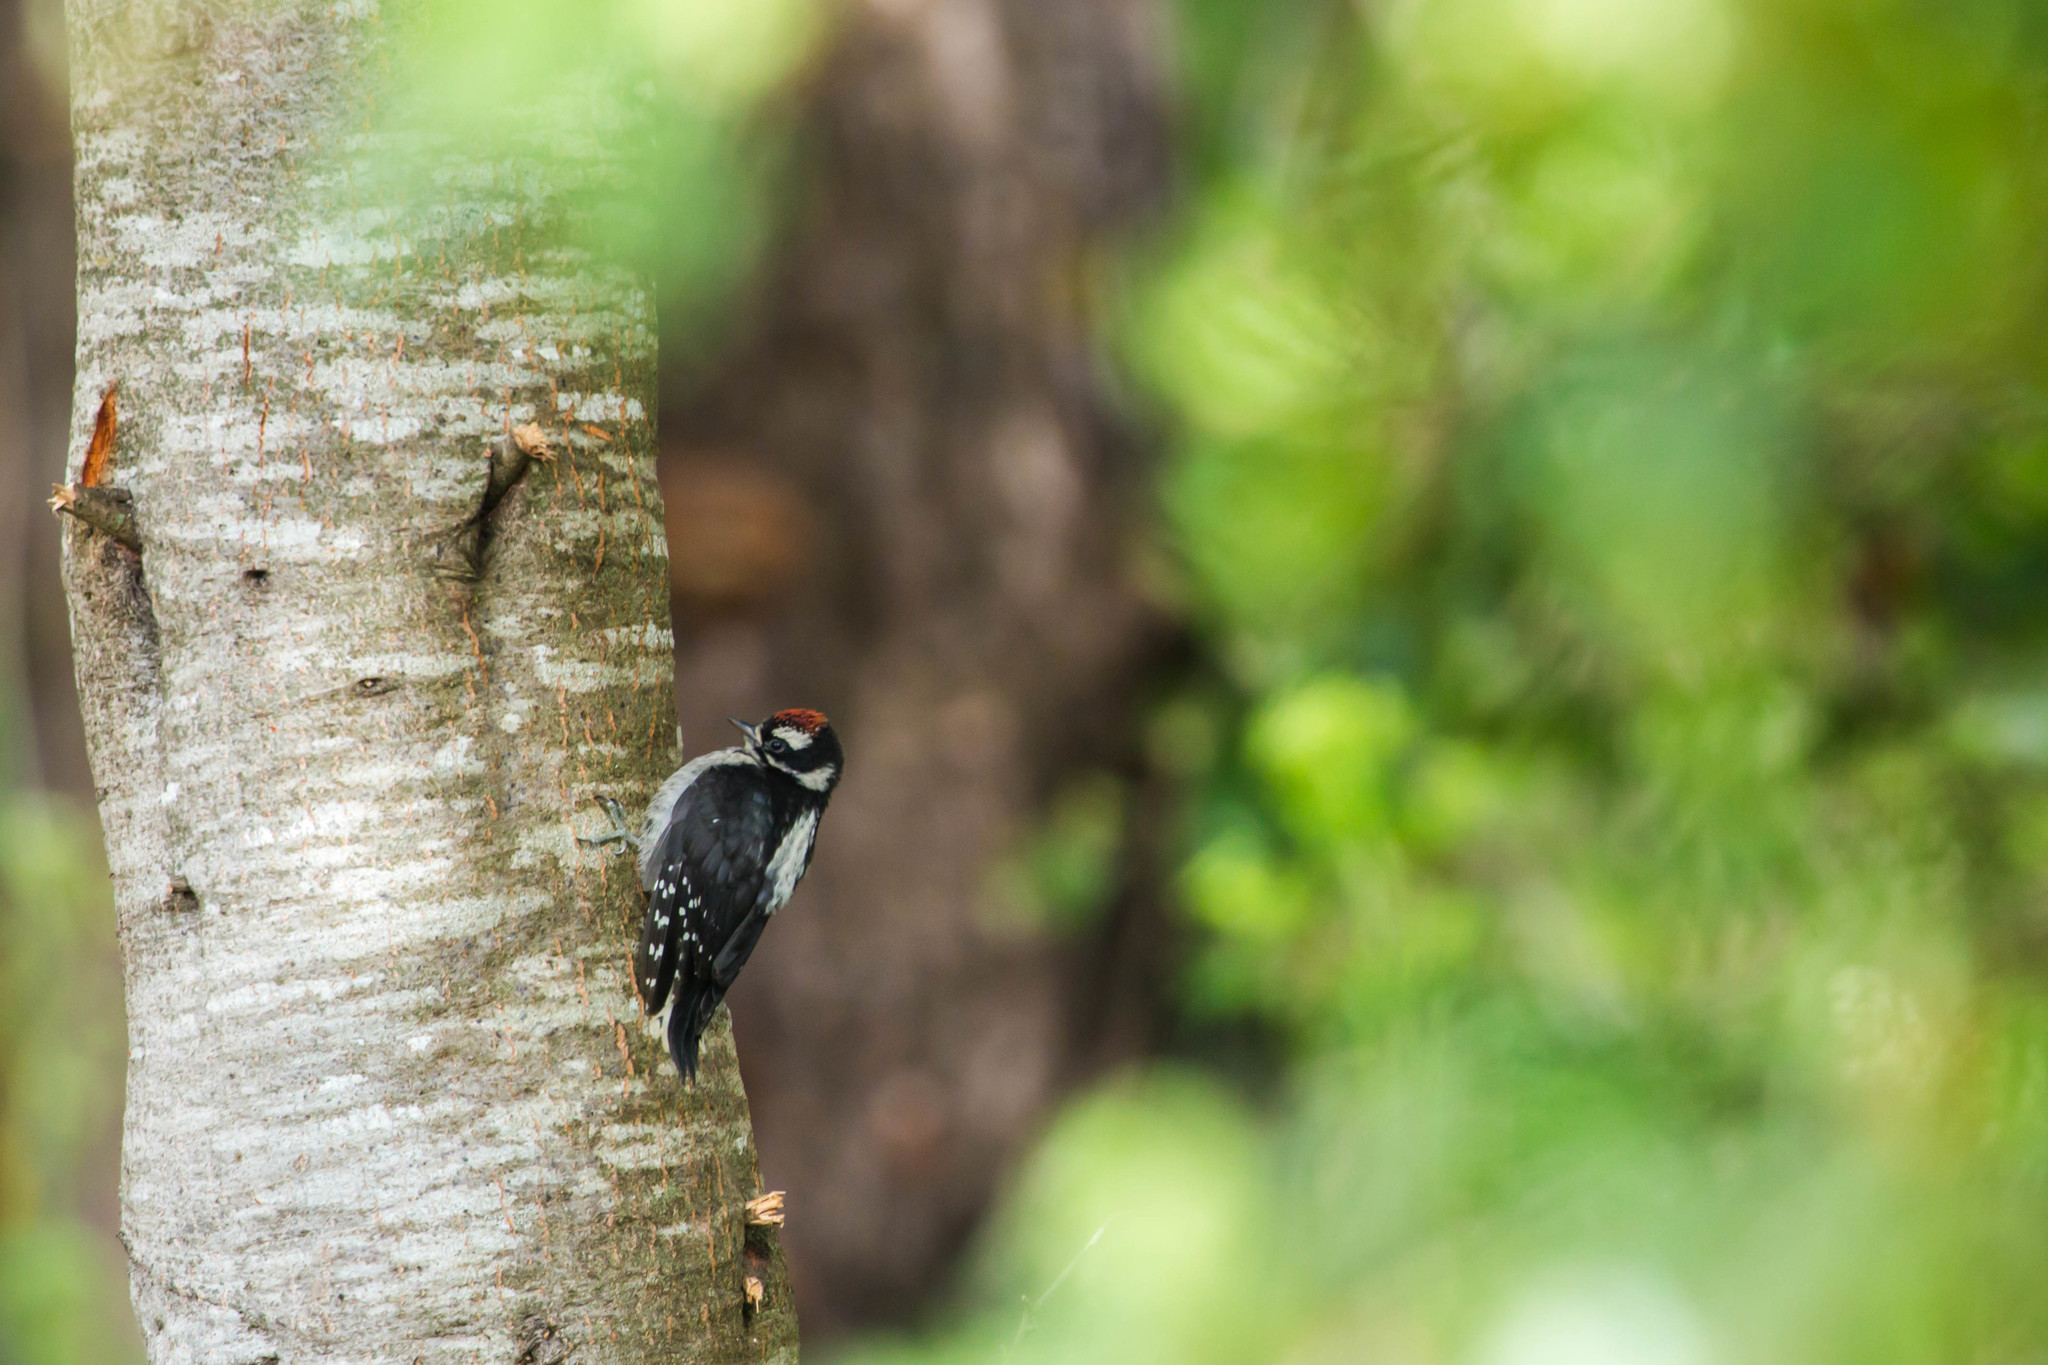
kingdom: Animalia
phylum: Chordata
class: Aves
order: Piciformes
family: Picidae
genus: Dryobates
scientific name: Dryobates pubescens
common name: Downy woodpecker
